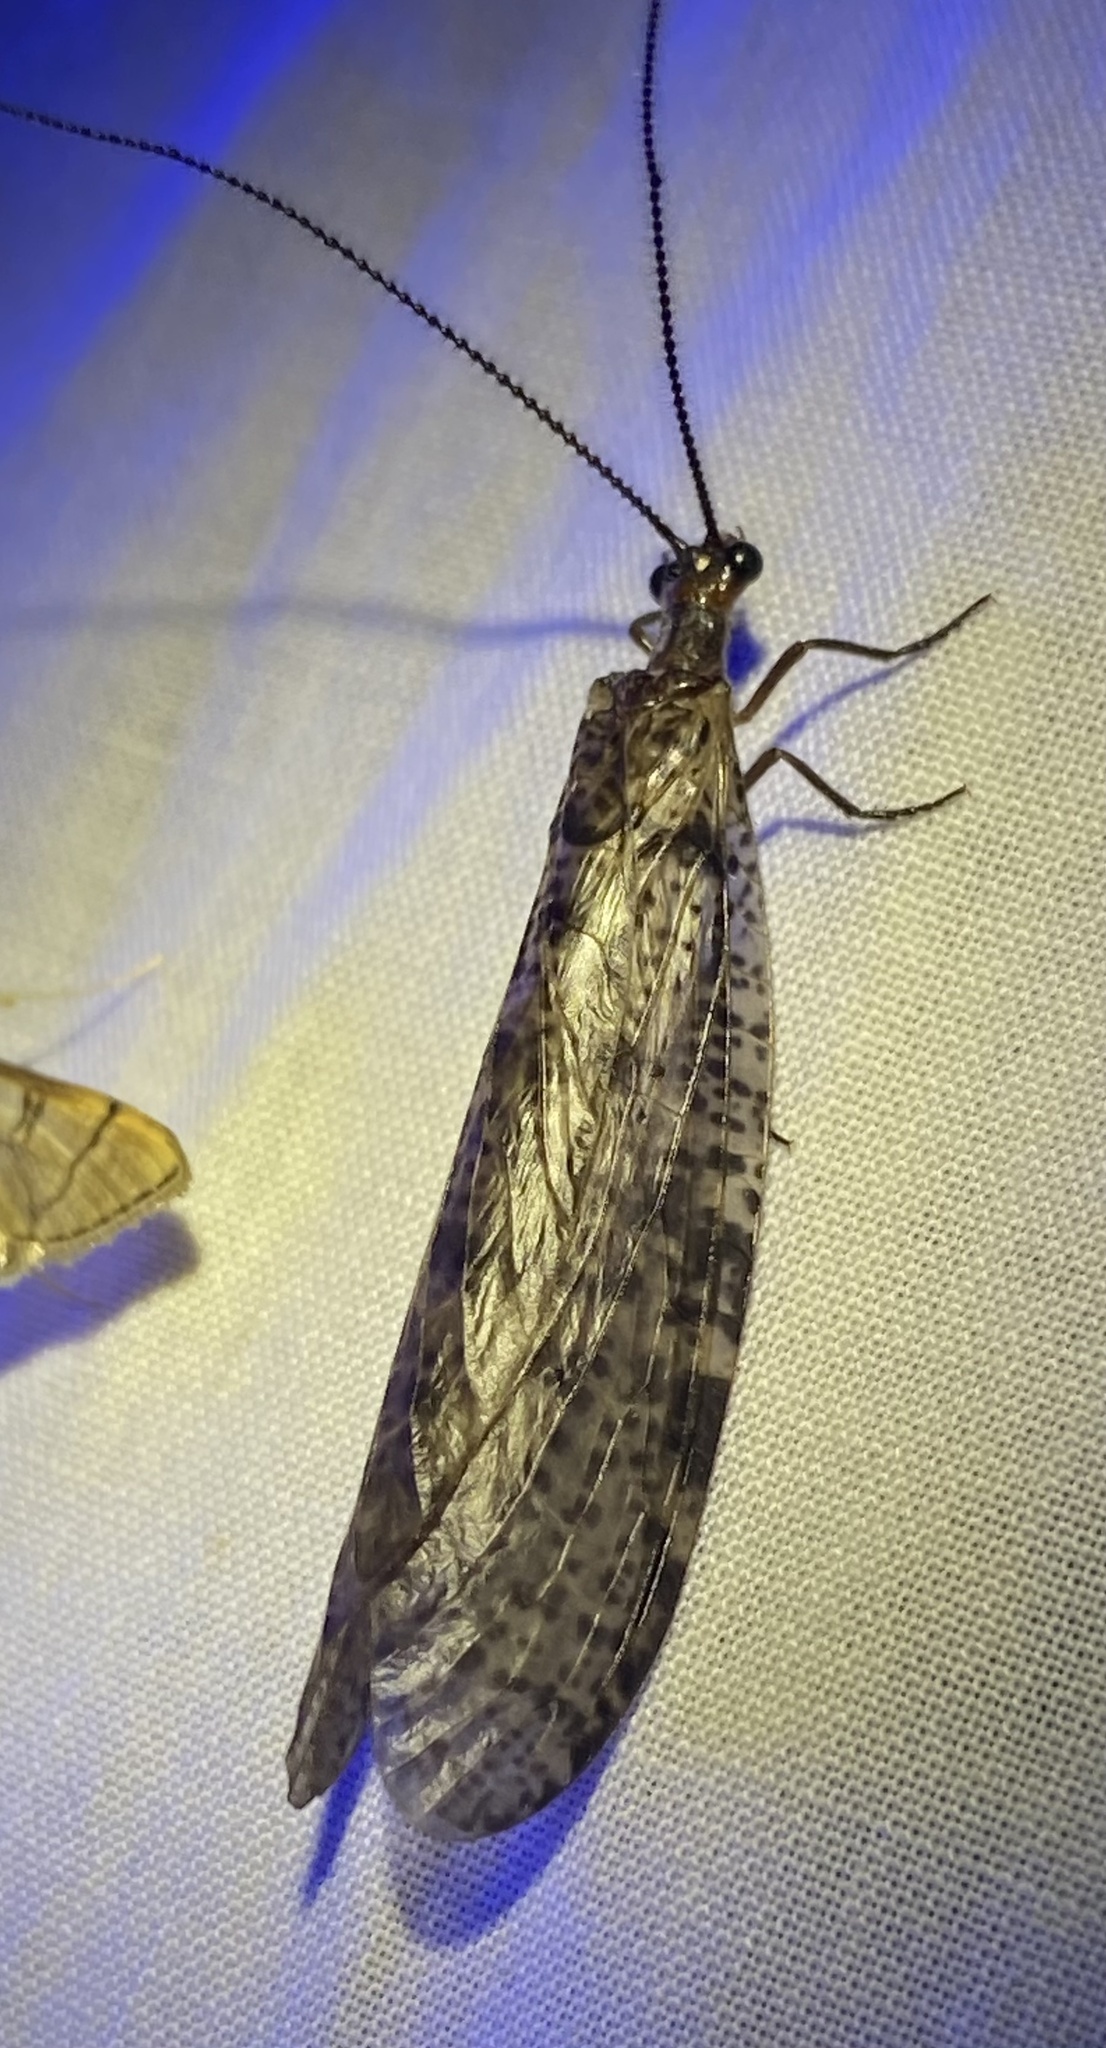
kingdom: Animalia
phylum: Arthropoda
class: Insecta
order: Megaloptera
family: Corydalidae
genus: Neohermes
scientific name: Neohermes concolor
